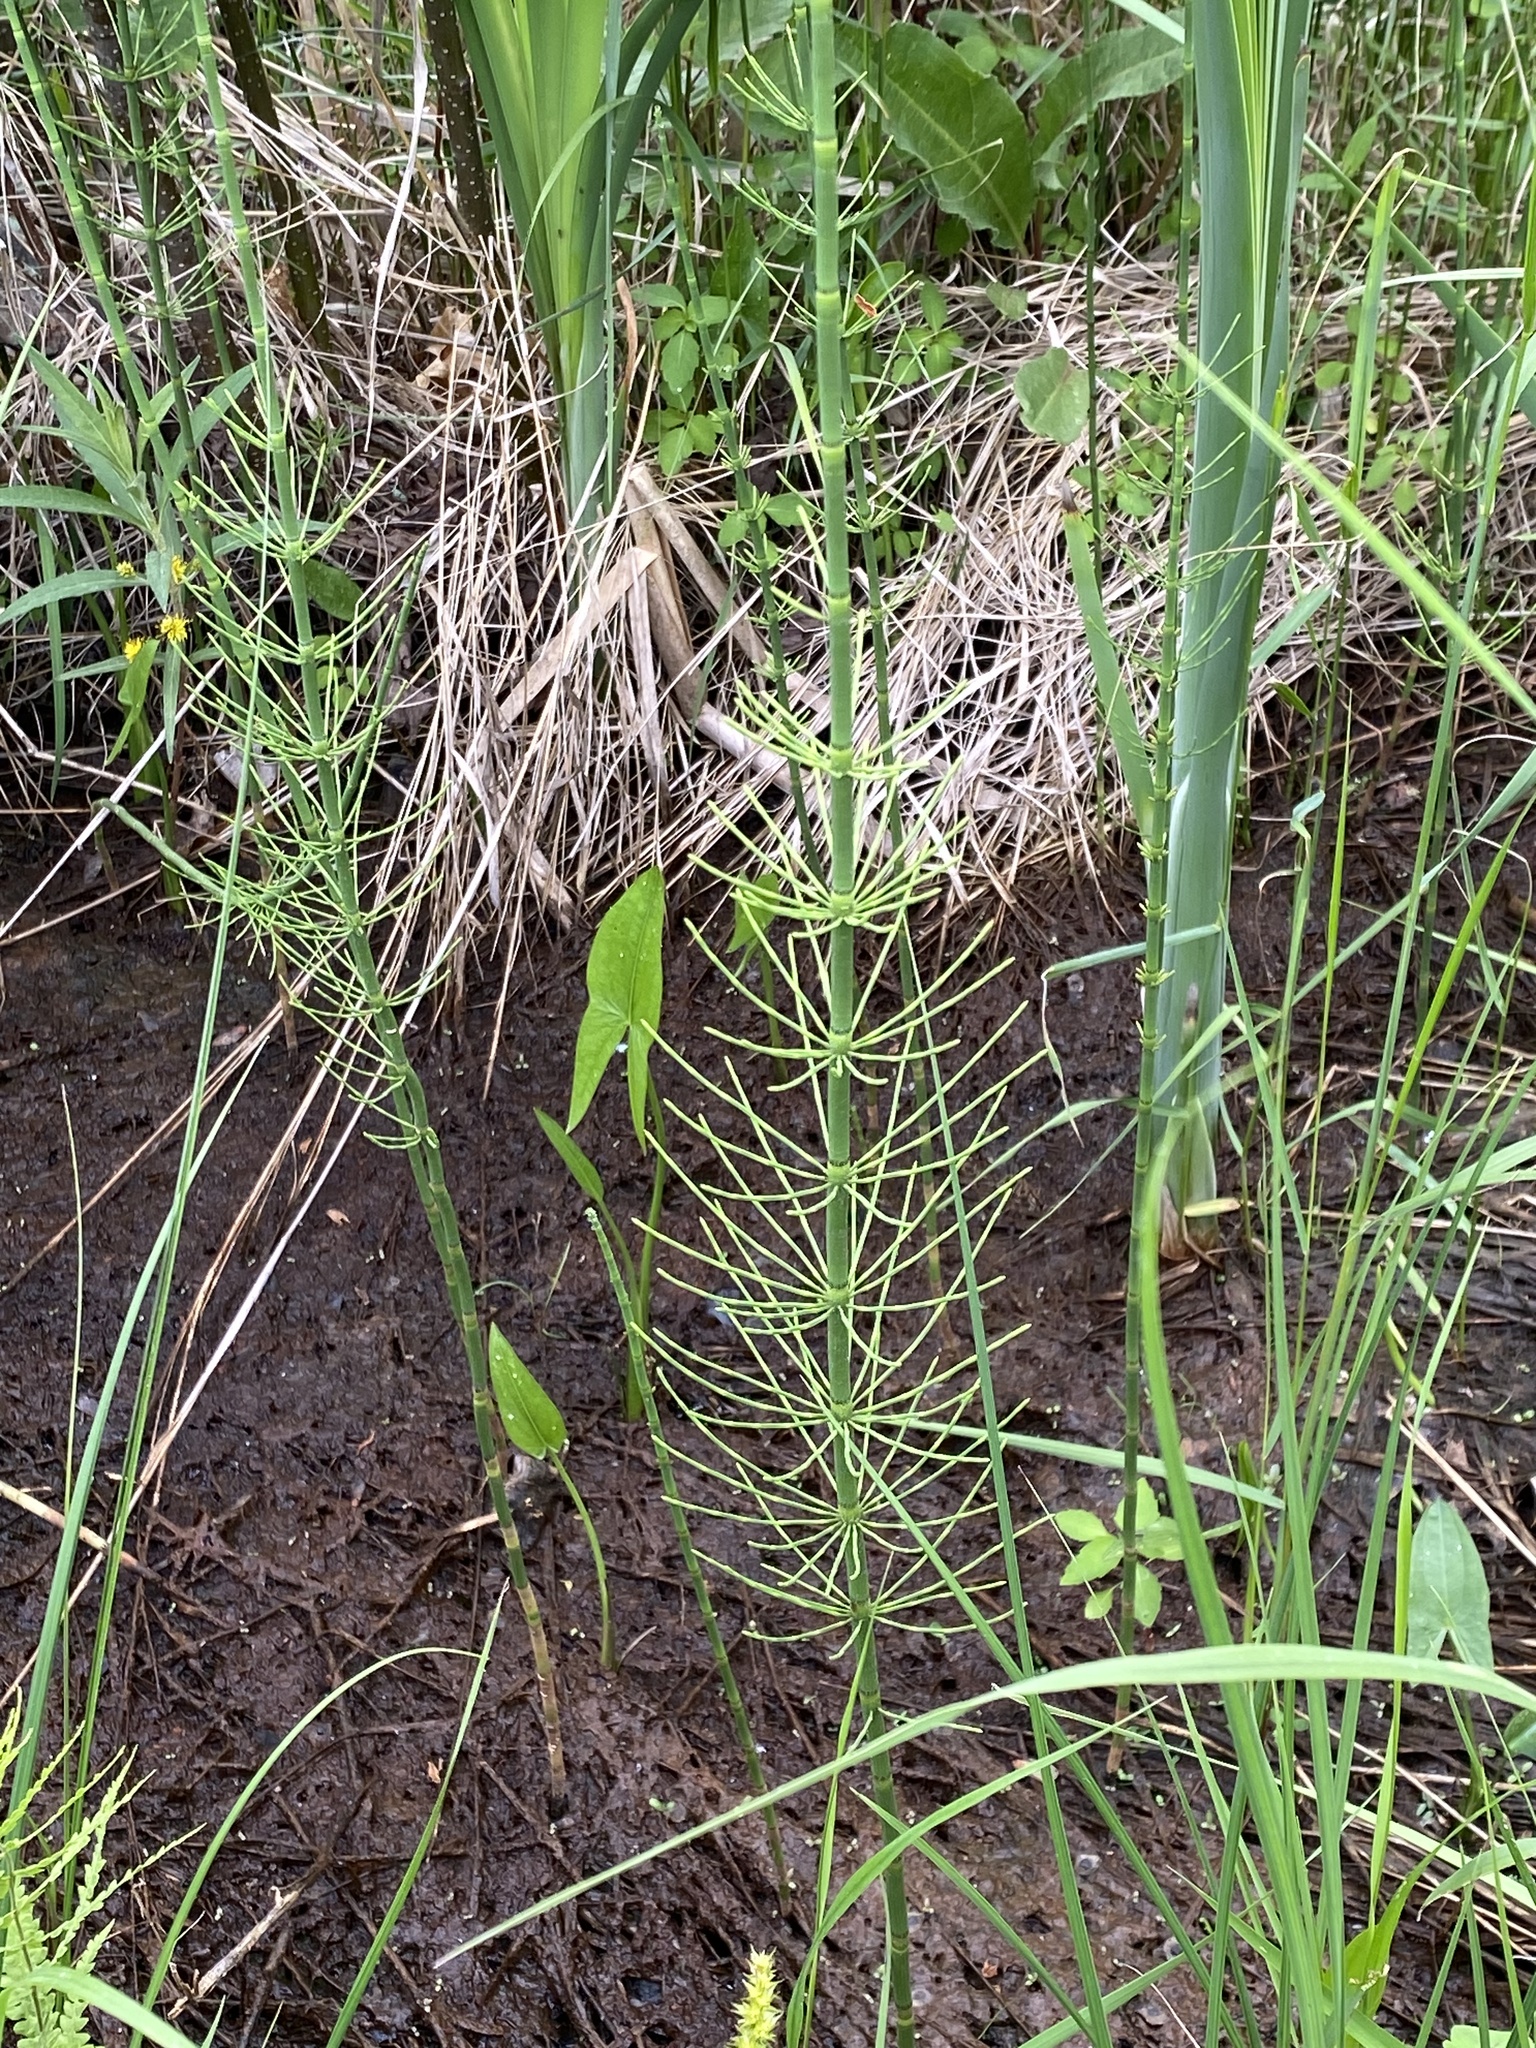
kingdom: Plantae
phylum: Tracheophyta
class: Polypodiopsida
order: Equisetales
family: Equisetaceae
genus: Equisetum
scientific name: Equisetum fluviatile
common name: Water horsetail
